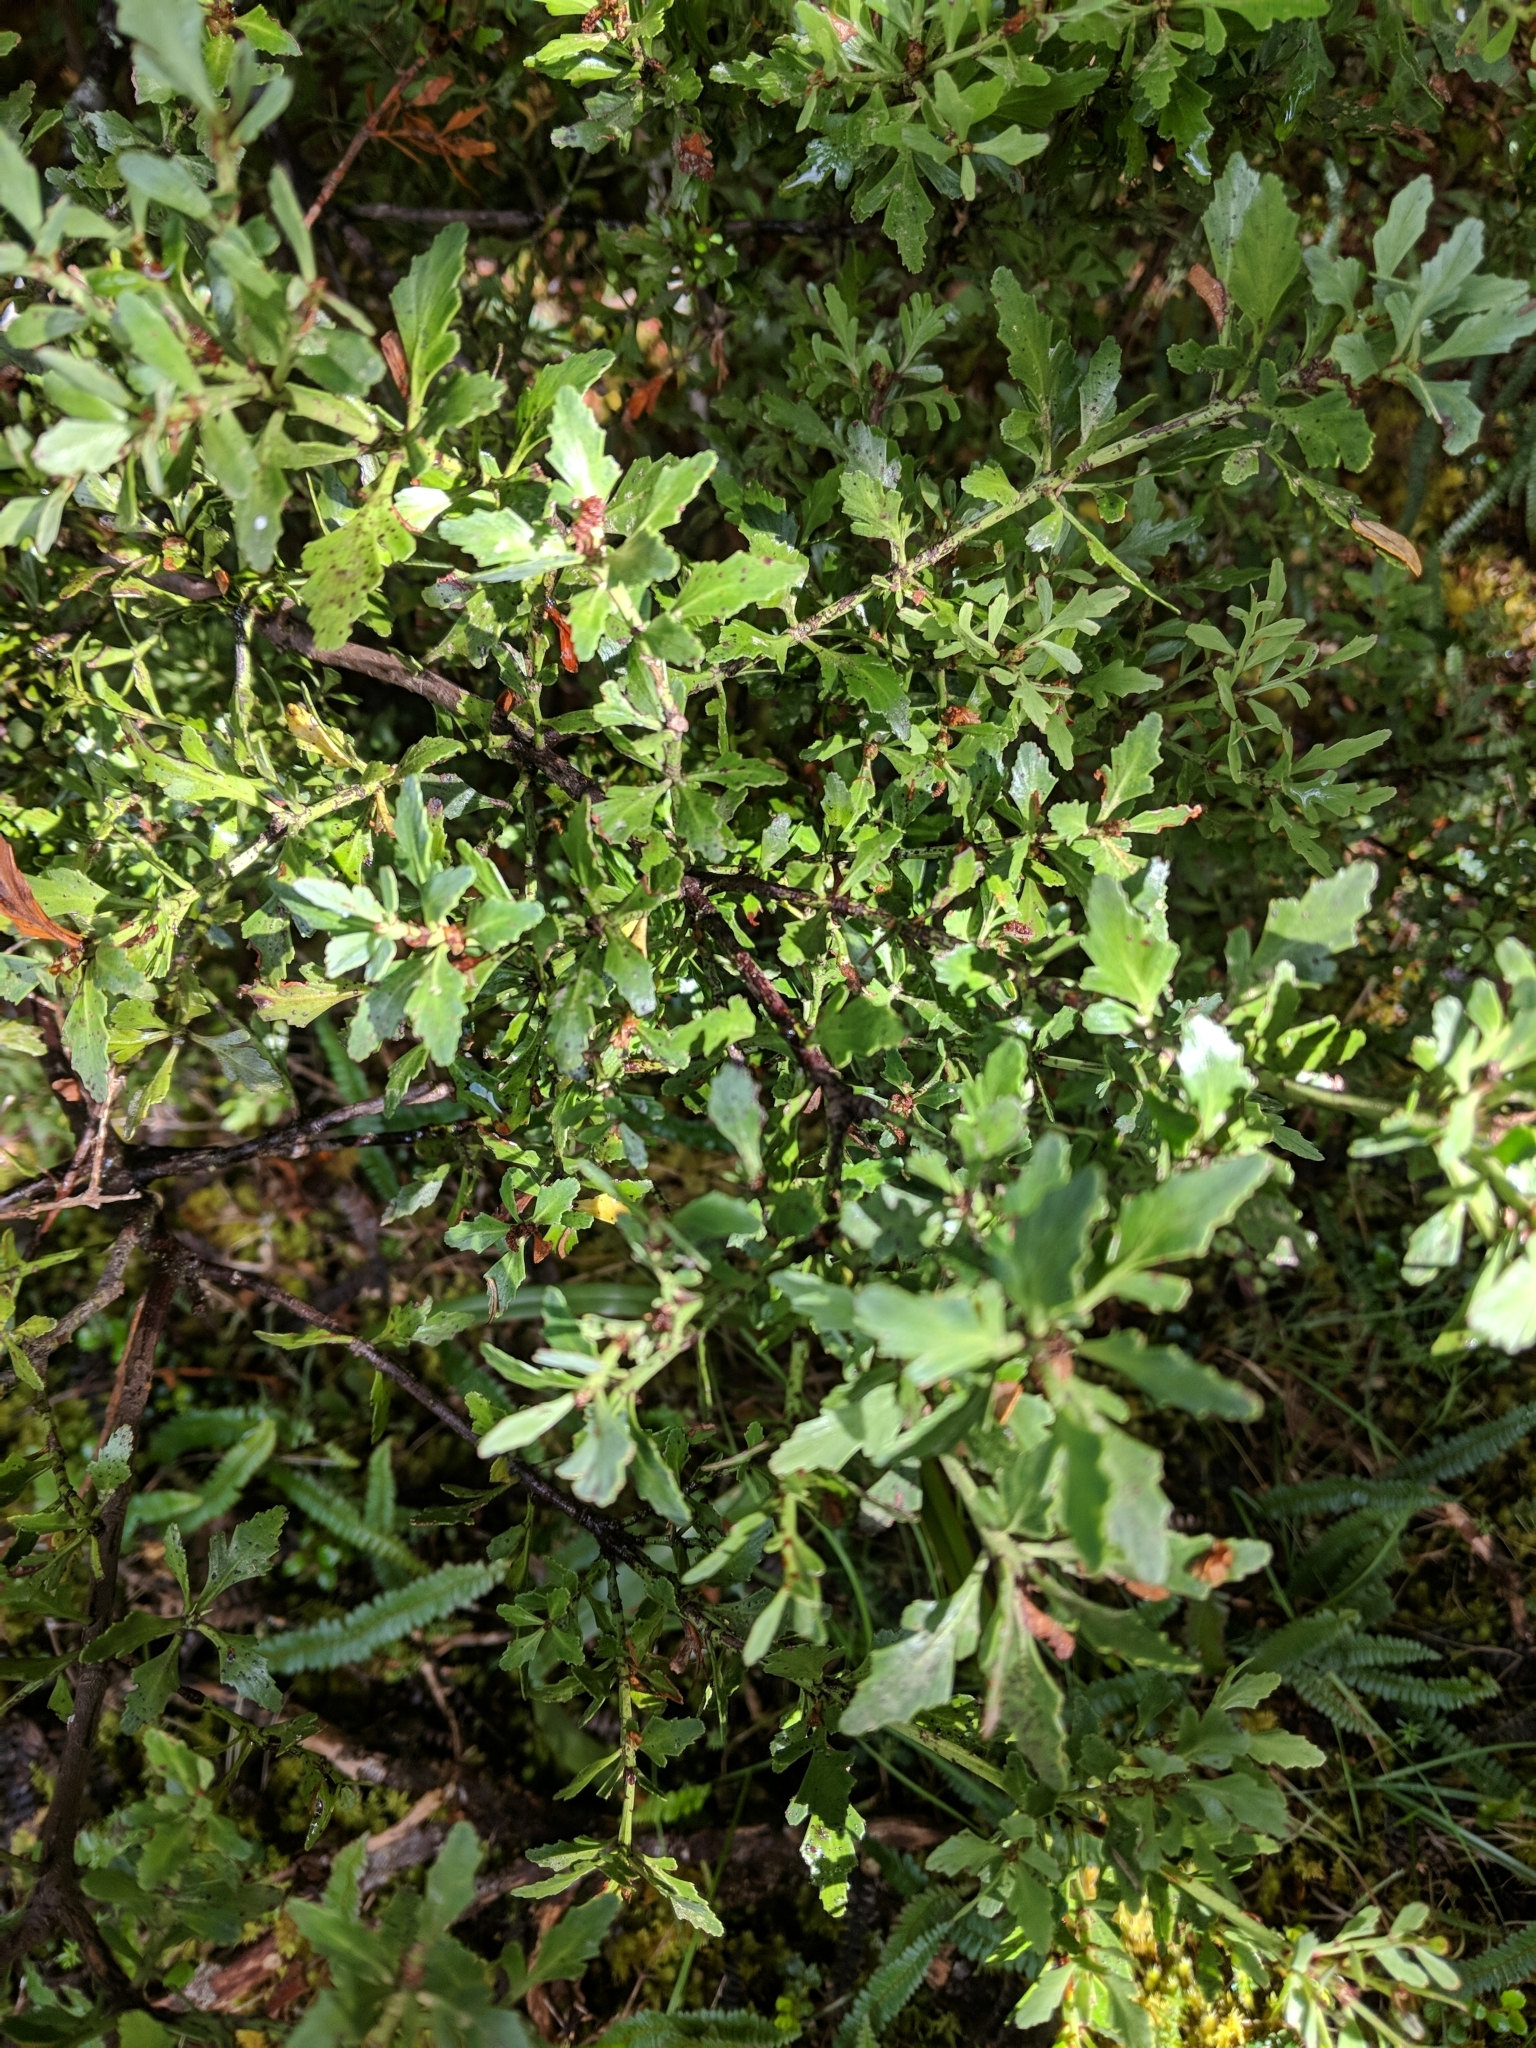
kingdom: Plantae
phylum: Tracheophyta
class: Pinopsida
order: Pinales
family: Phyllocladaceae
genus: Phyllocladus
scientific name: Phyllocladus trichomanoides
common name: Celery pine
